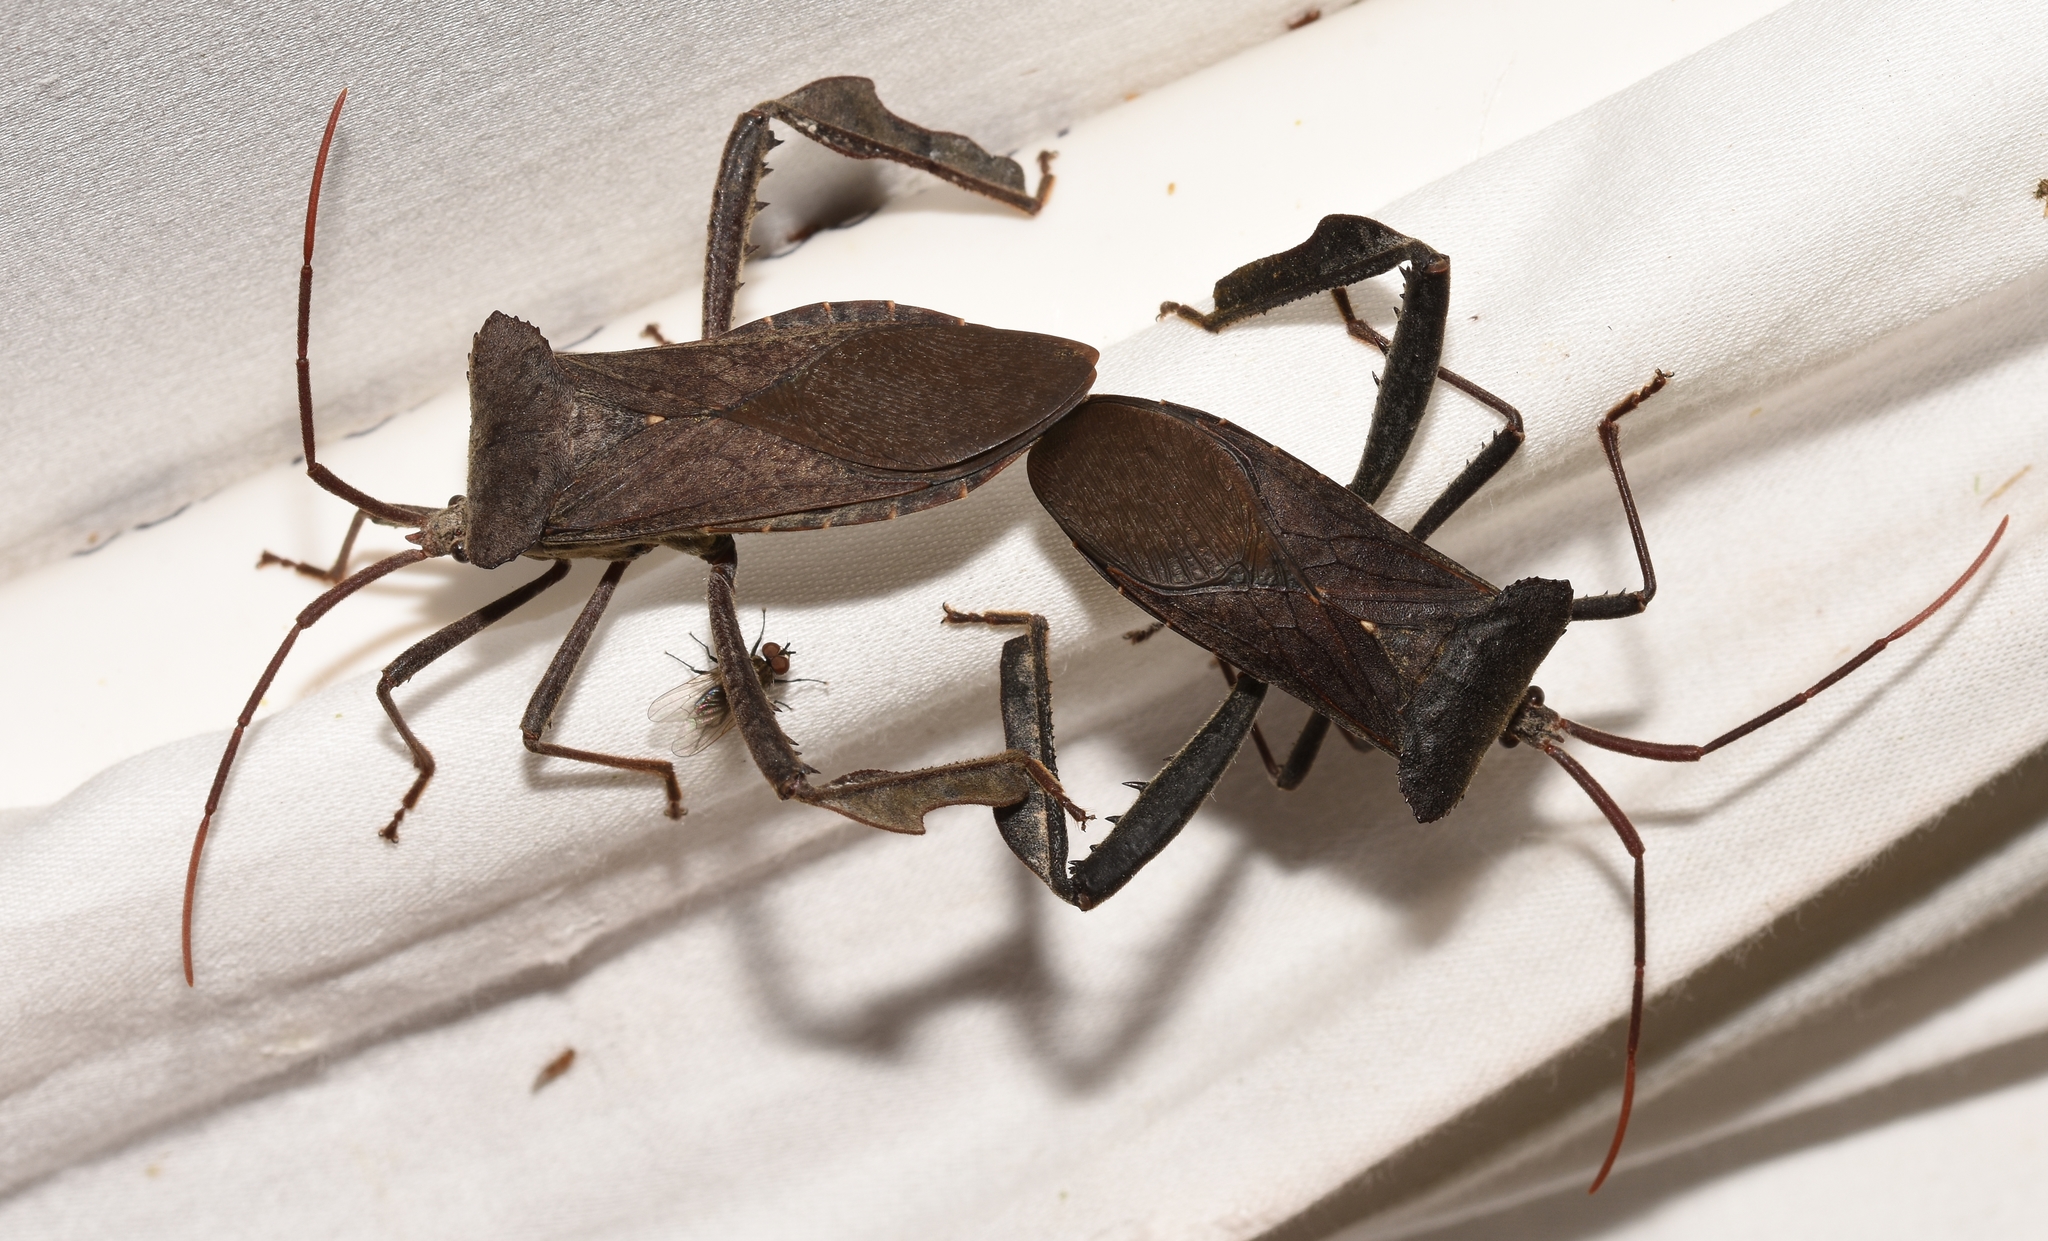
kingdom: Animalia
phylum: Arthropoda
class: Insecta
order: Hemiptera
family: Coreidae
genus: Acanthocephala
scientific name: Acanthocephala declivis
